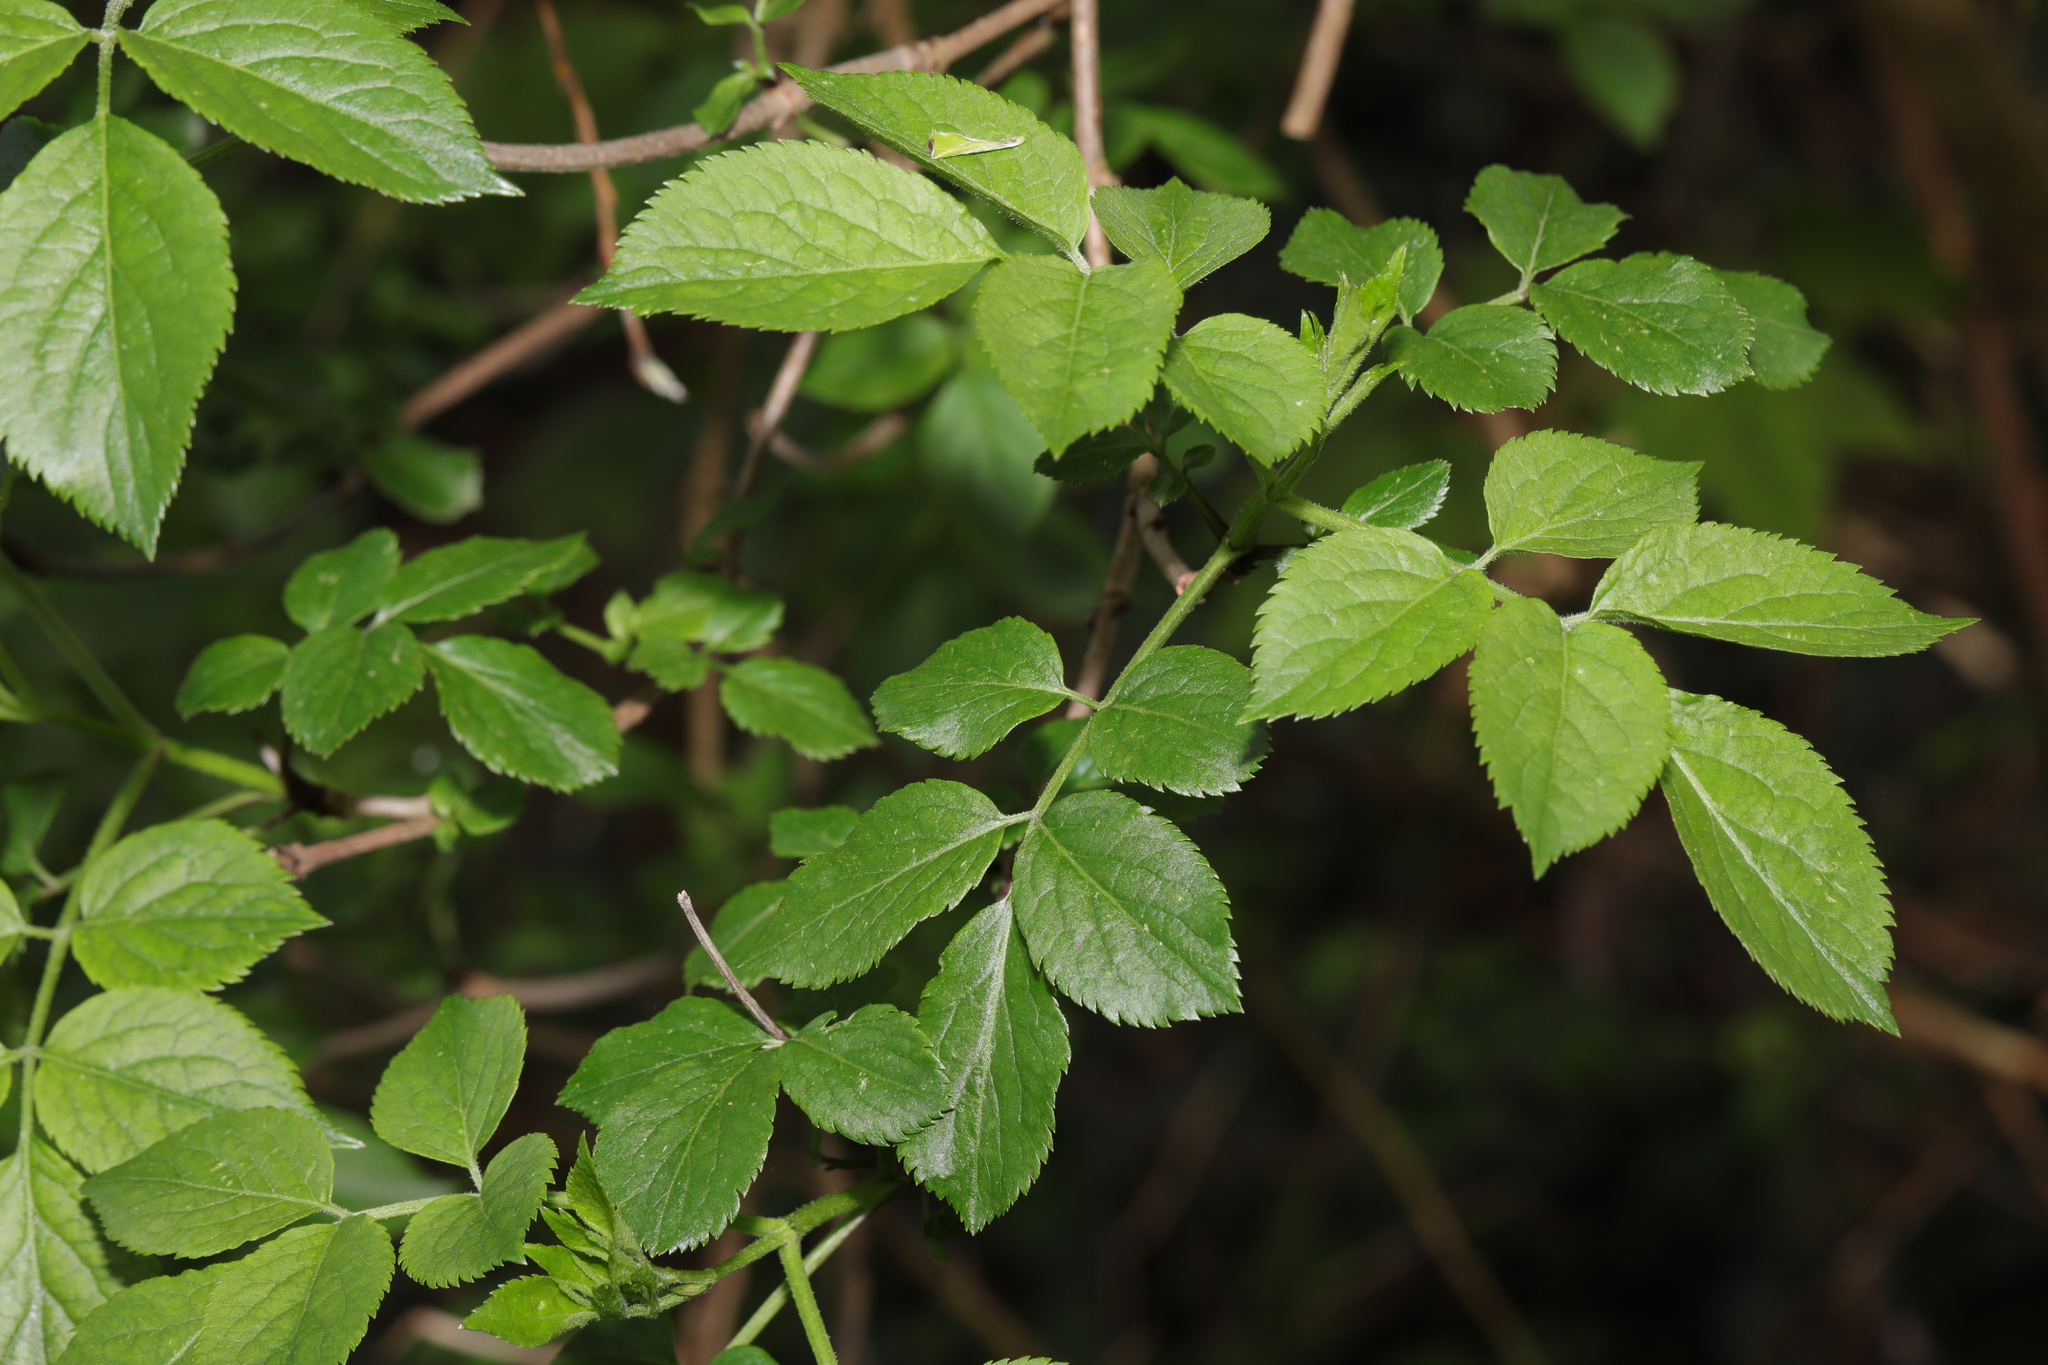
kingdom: Plantae
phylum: Tracheophyta
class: Magnoliopsida
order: Dipsacales
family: Viburnaceae
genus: Sambucus
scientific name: Sambucus nigra
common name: Elder
